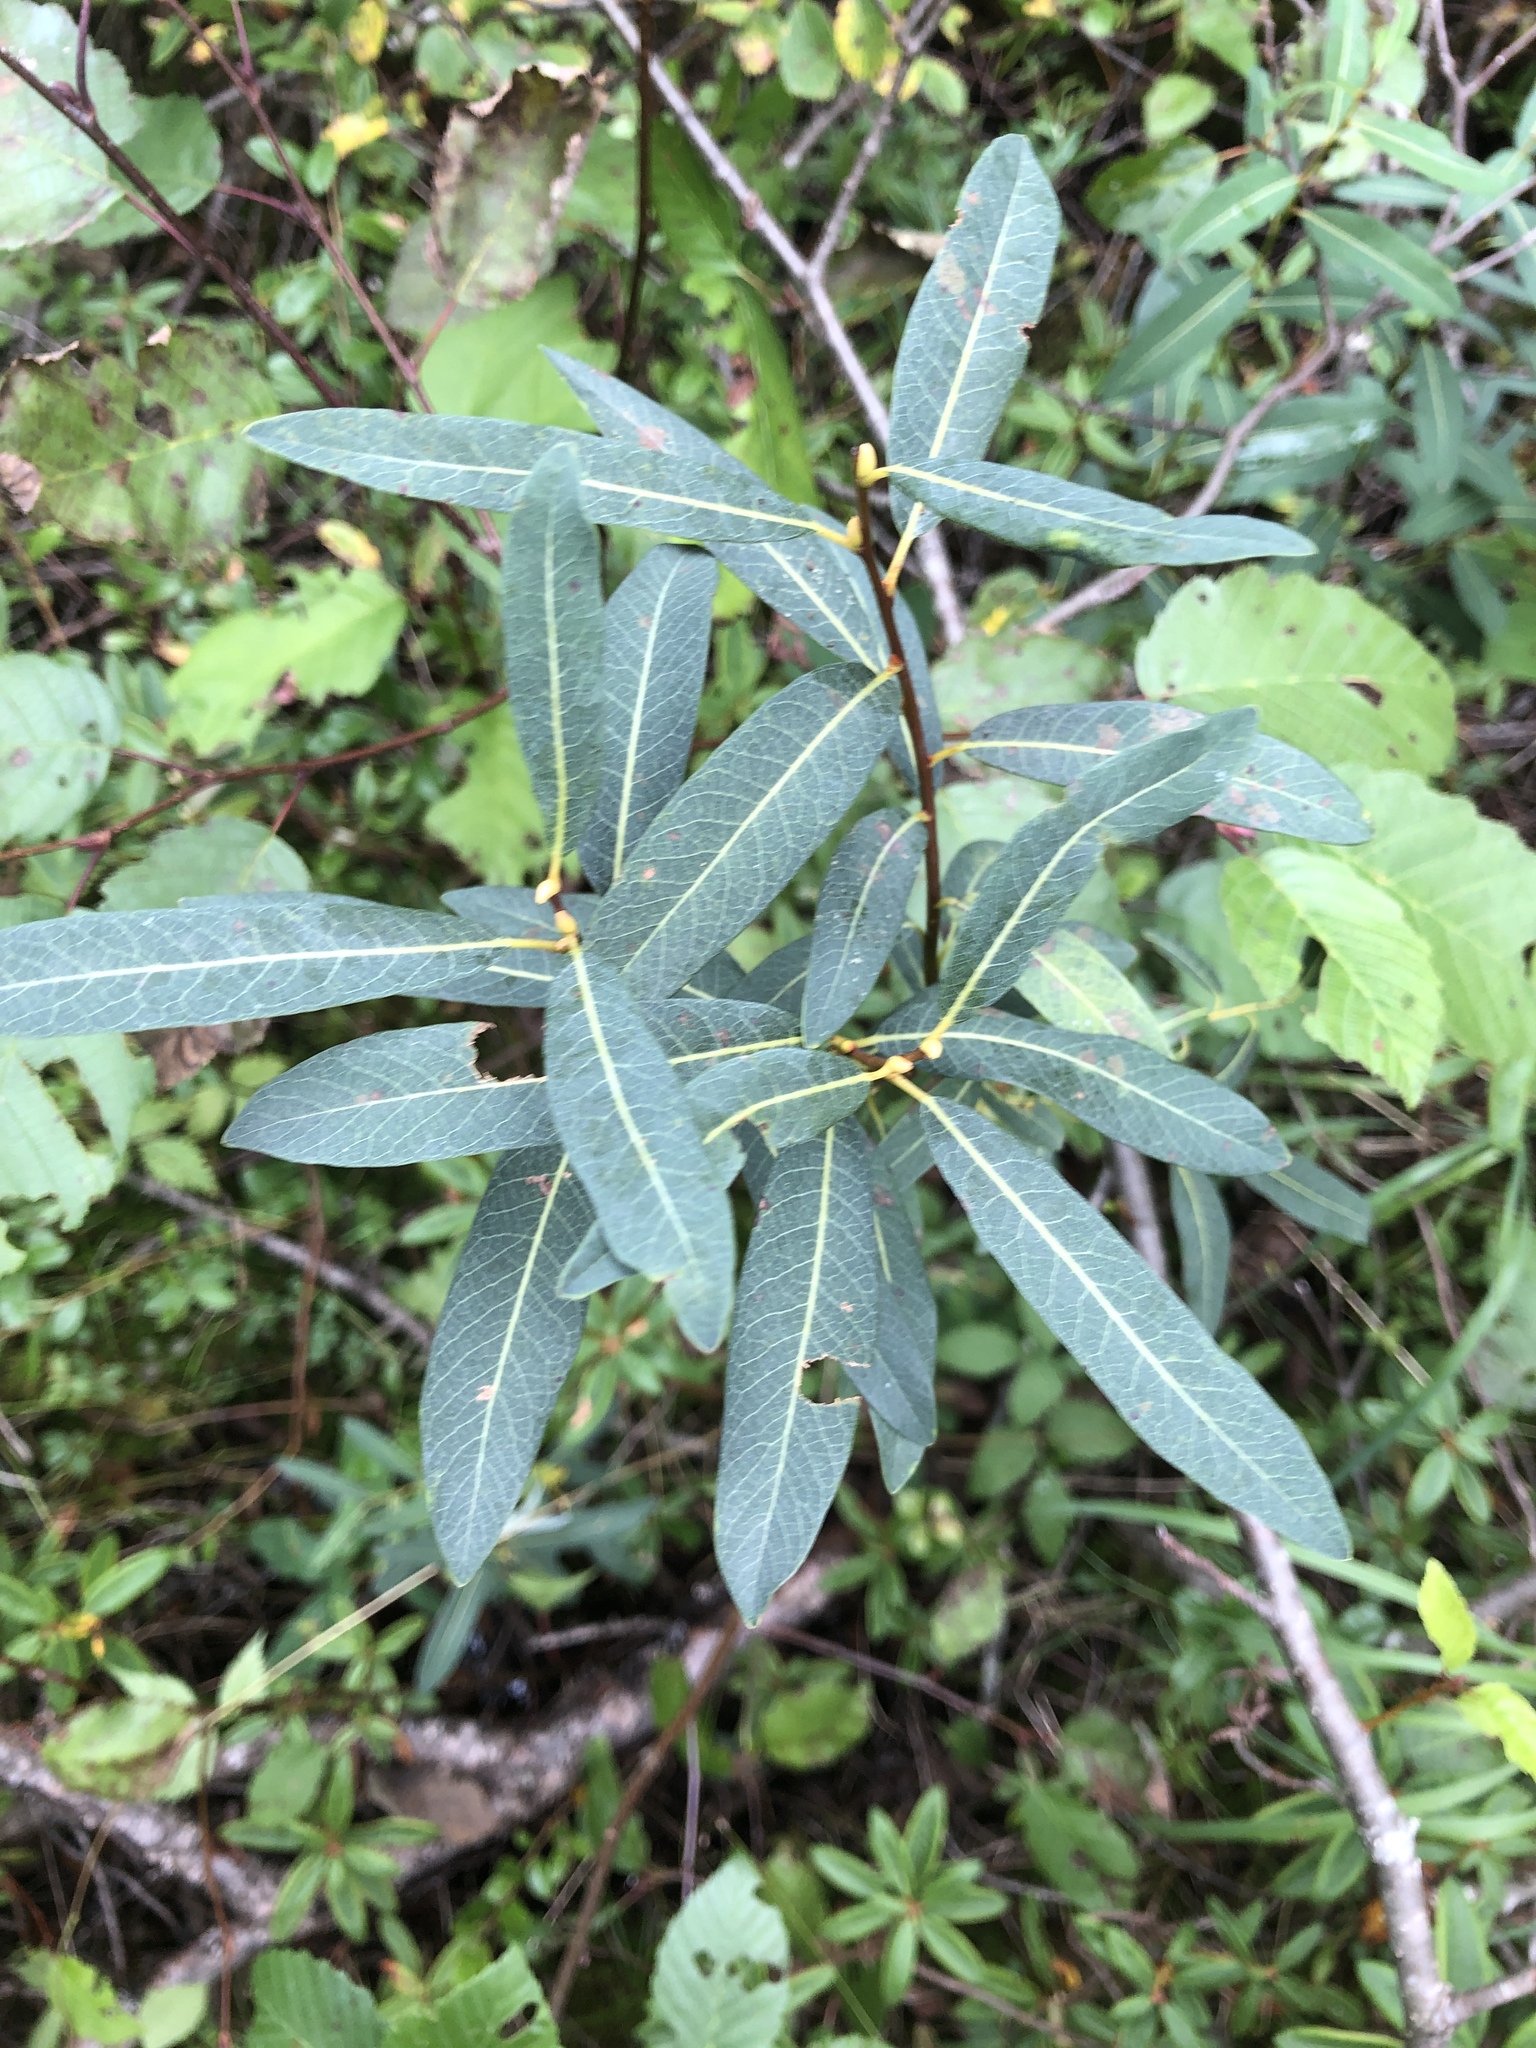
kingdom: Plantae
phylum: Tracheophyta
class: Magnoliopsida
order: Malpighiales
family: Salicaceae
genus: Salix
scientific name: Salix pedicellaris
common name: Bog willow
